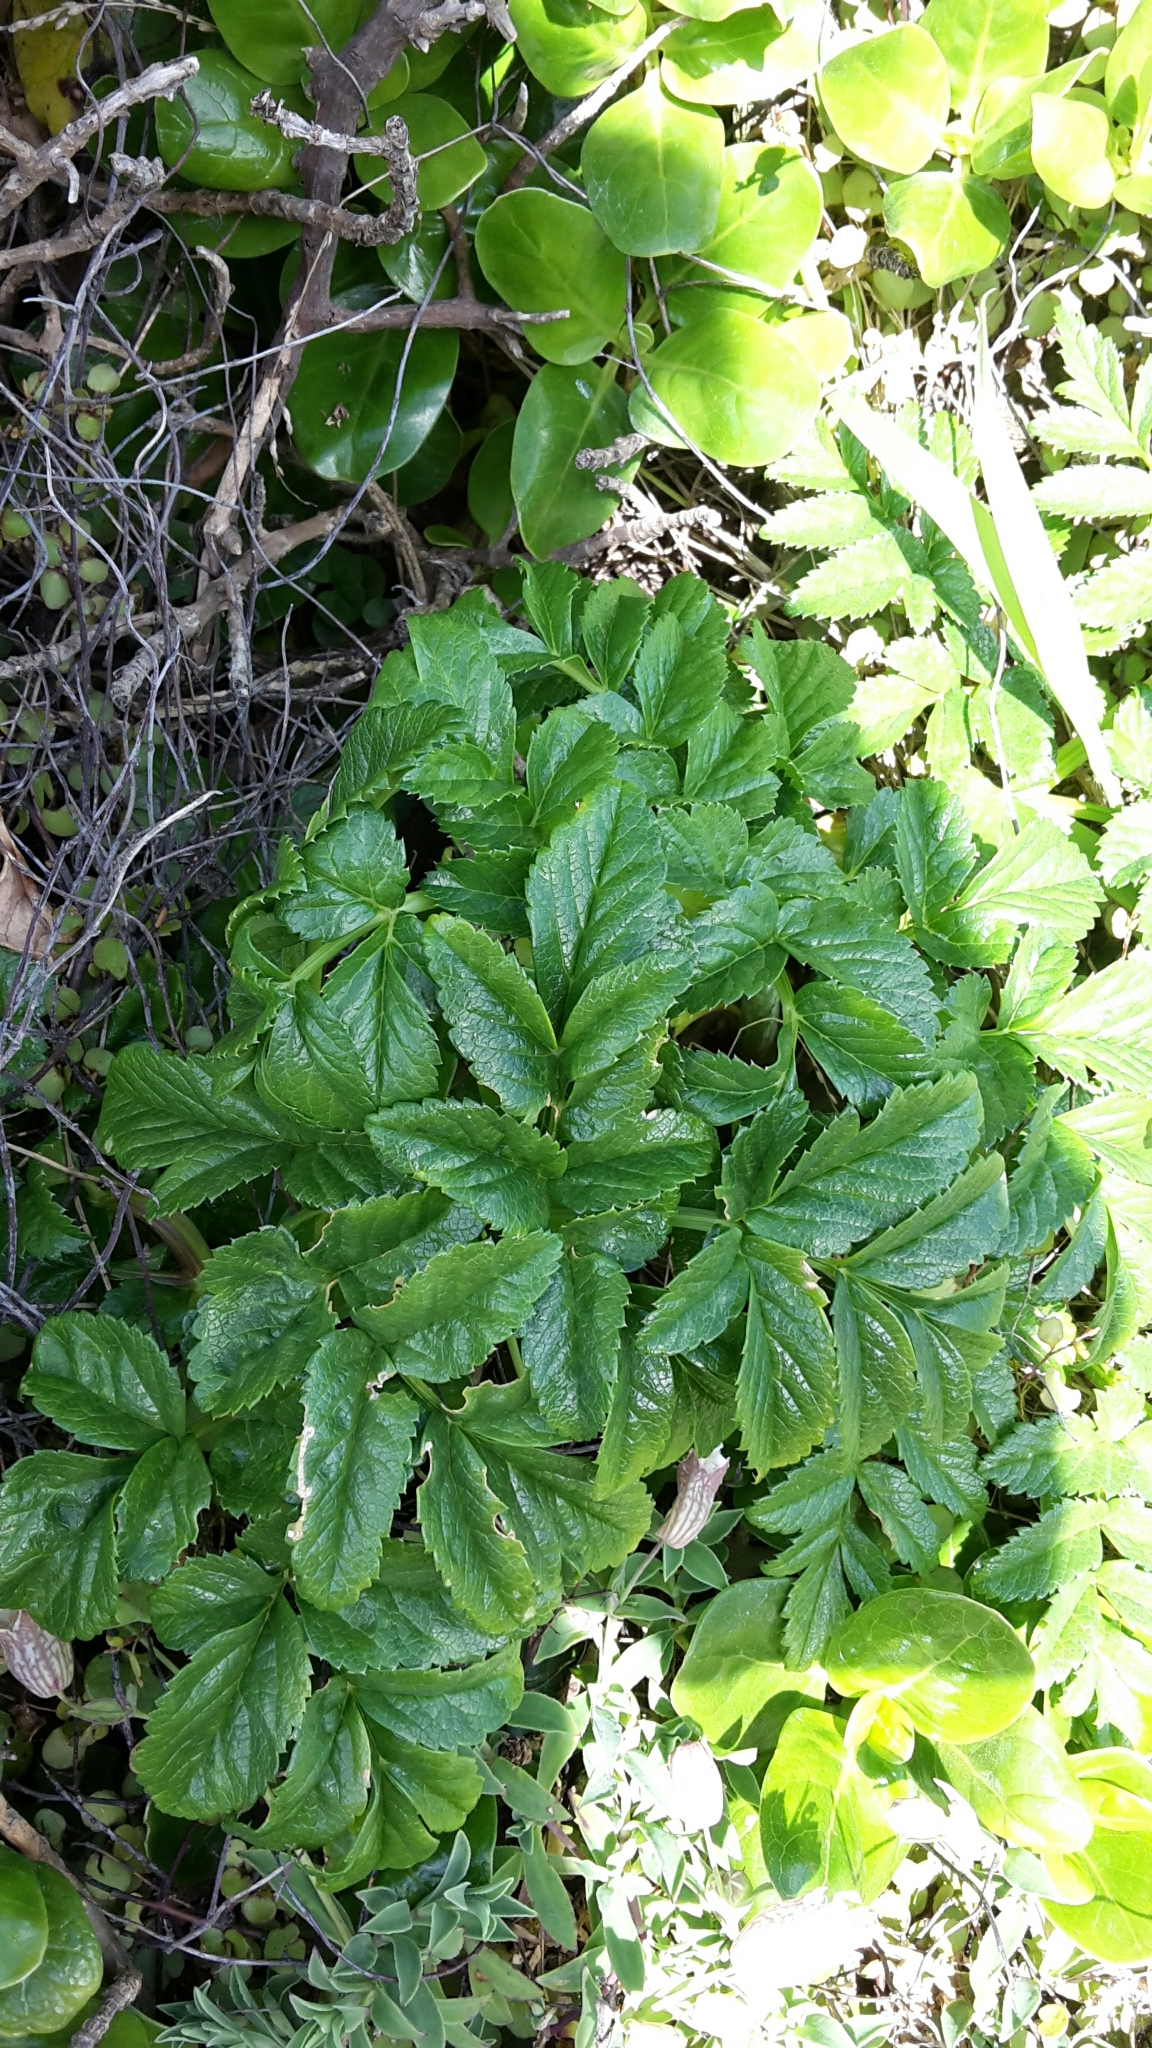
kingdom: Plantae
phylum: Tracheophyta
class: Magnoliopsida
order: Apiales
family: Apiaceae
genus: Angelica
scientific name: Angelica pachycarpa
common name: Portuguese angelica
